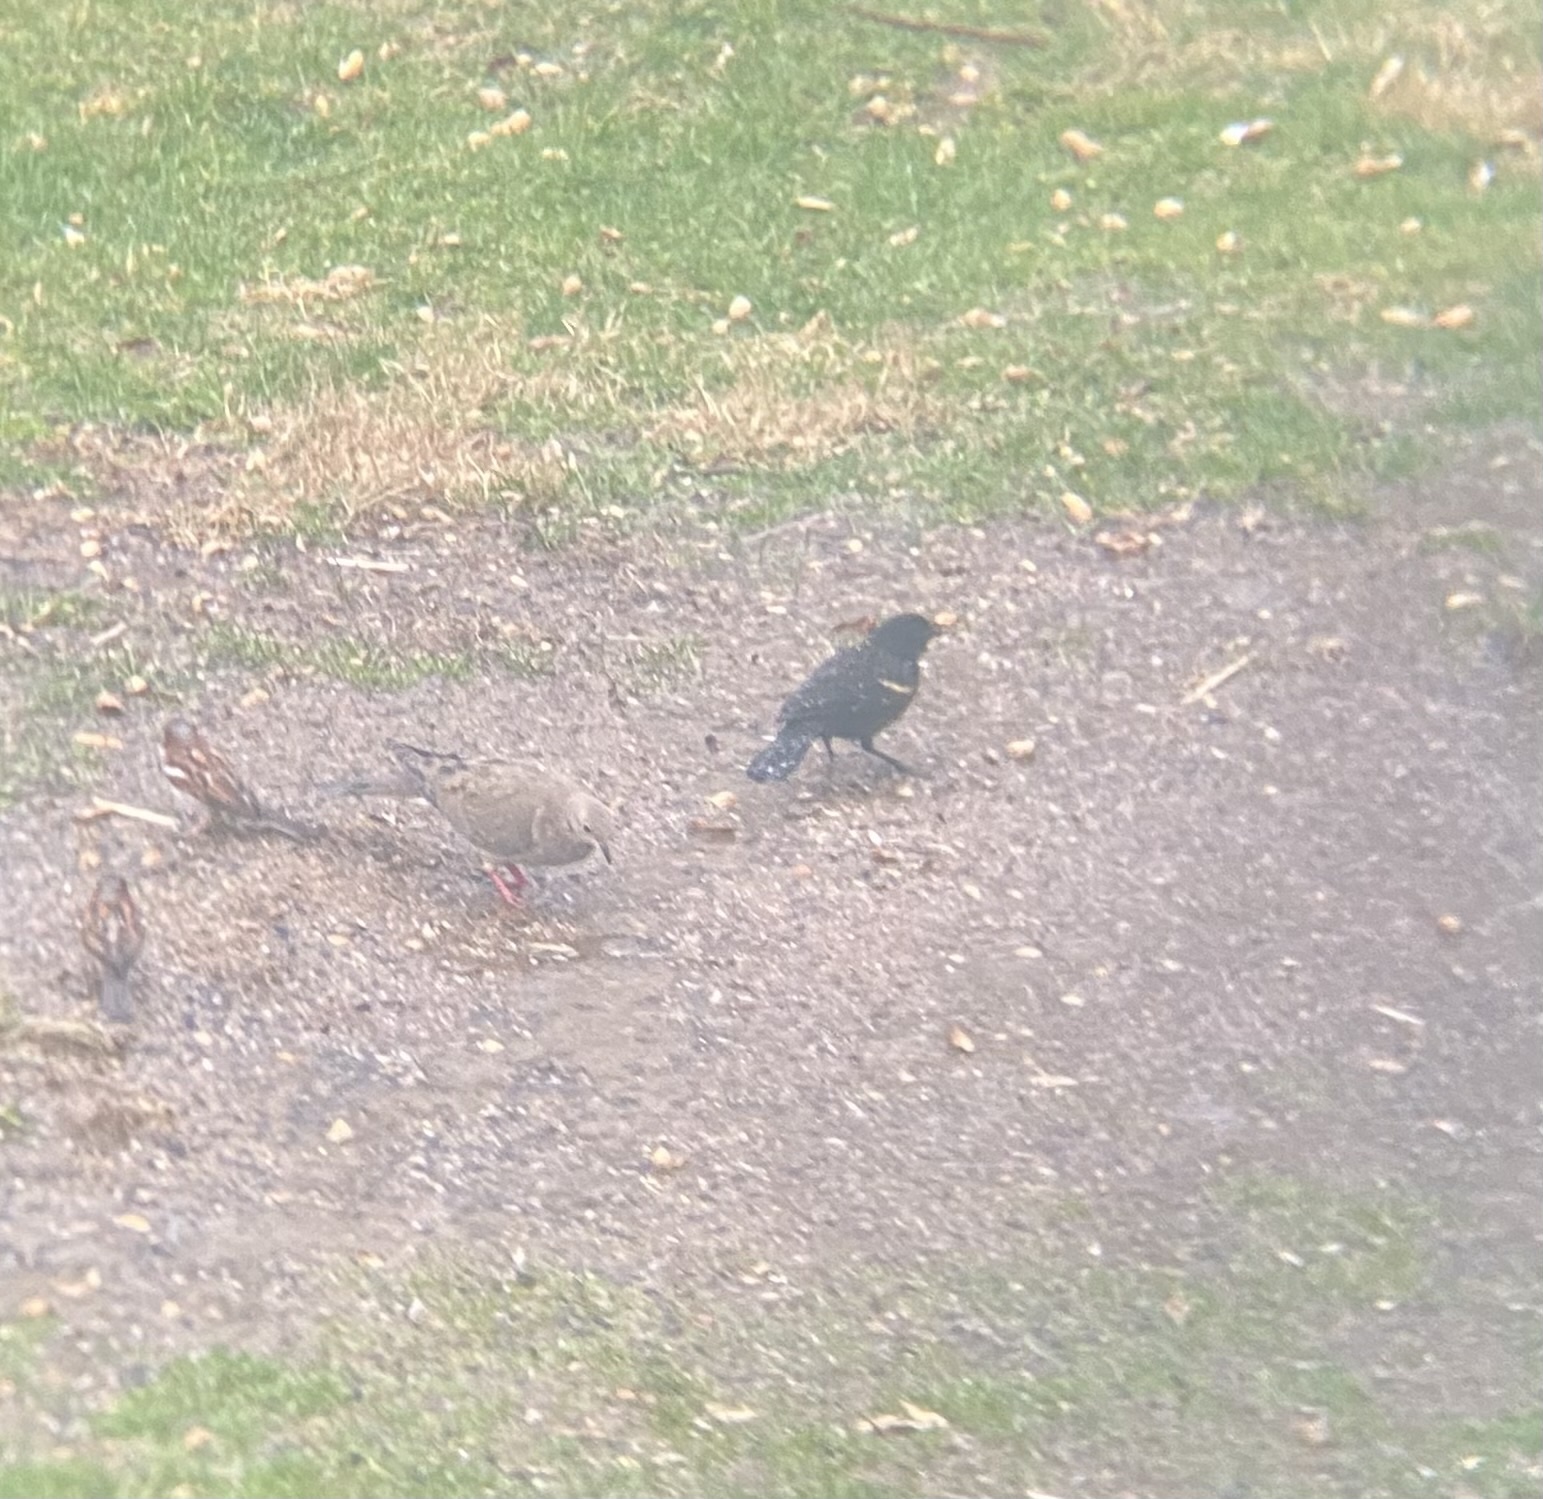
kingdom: Animalia
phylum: Chordata
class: Aves
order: Passeriformes
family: Icteridae
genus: Agelaius
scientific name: Agelaius phoeniceus
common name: Red-winged blackbird
